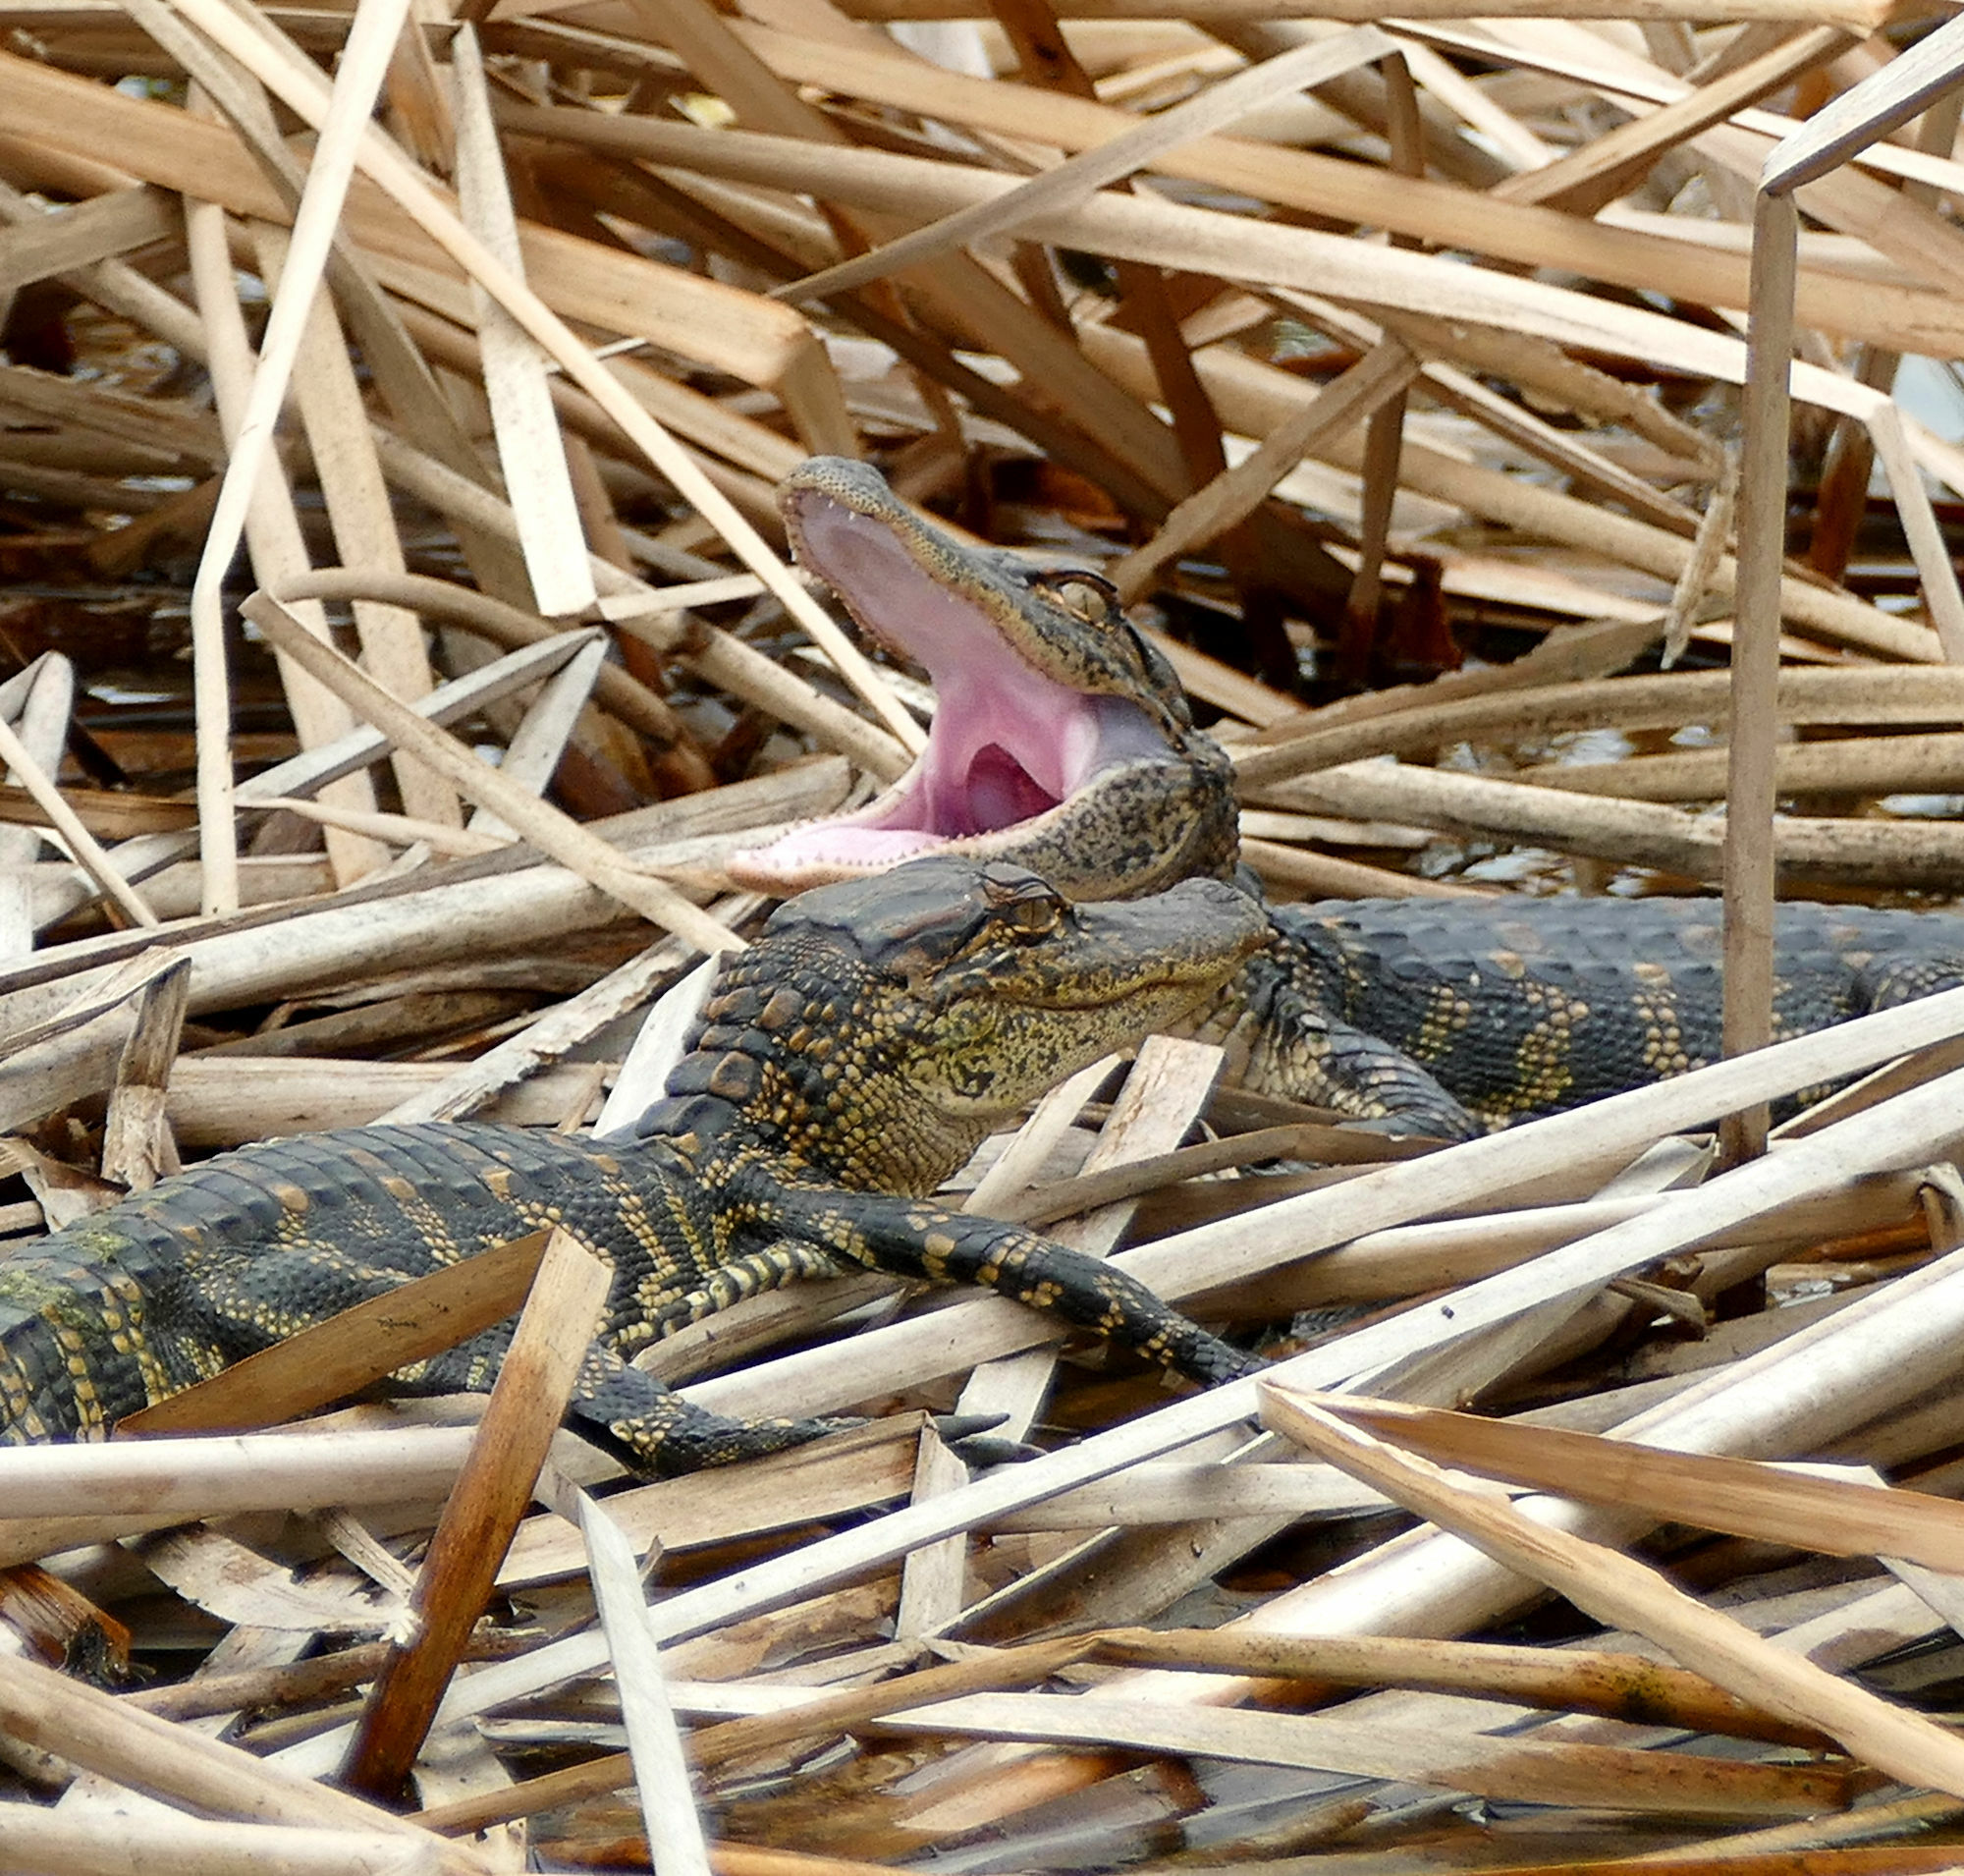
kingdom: Animalia
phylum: Chordata
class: Crocodylia
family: Alligatoridae
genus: Alligator
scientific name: Alligator mississippiensis
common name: American alligator
